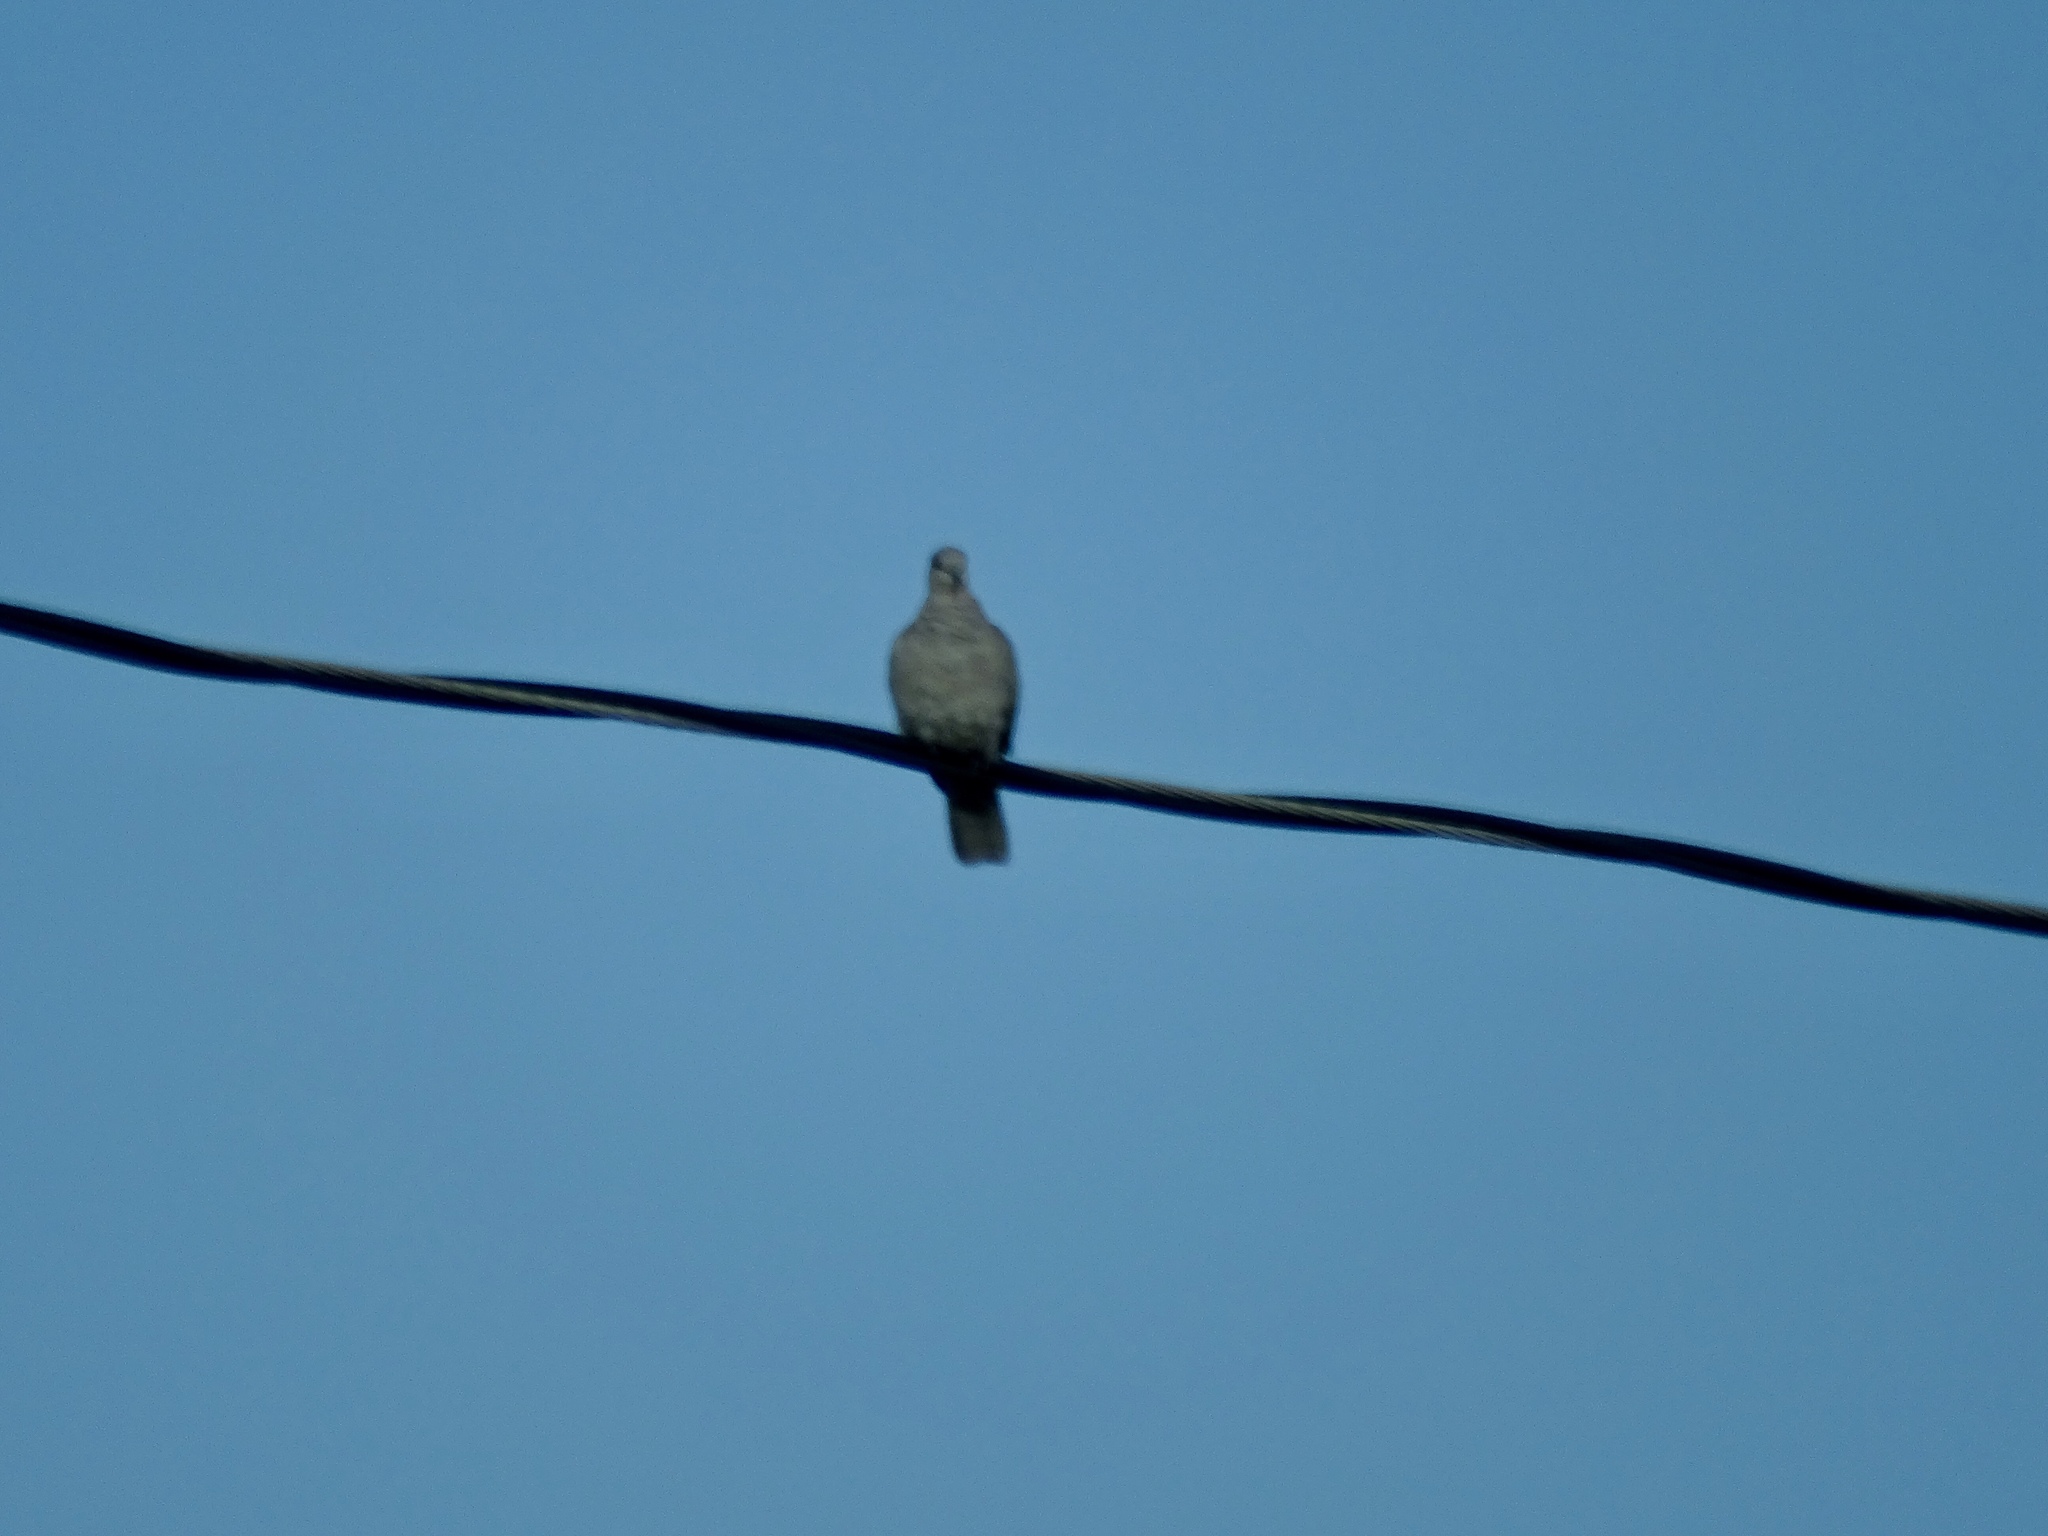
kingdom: Animalia
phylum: Chordata
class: Aves
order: Columbiformes
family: Columbidae
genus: Streptopelia
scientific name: Streptopelia decaocto
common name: Eurasian collared dove
